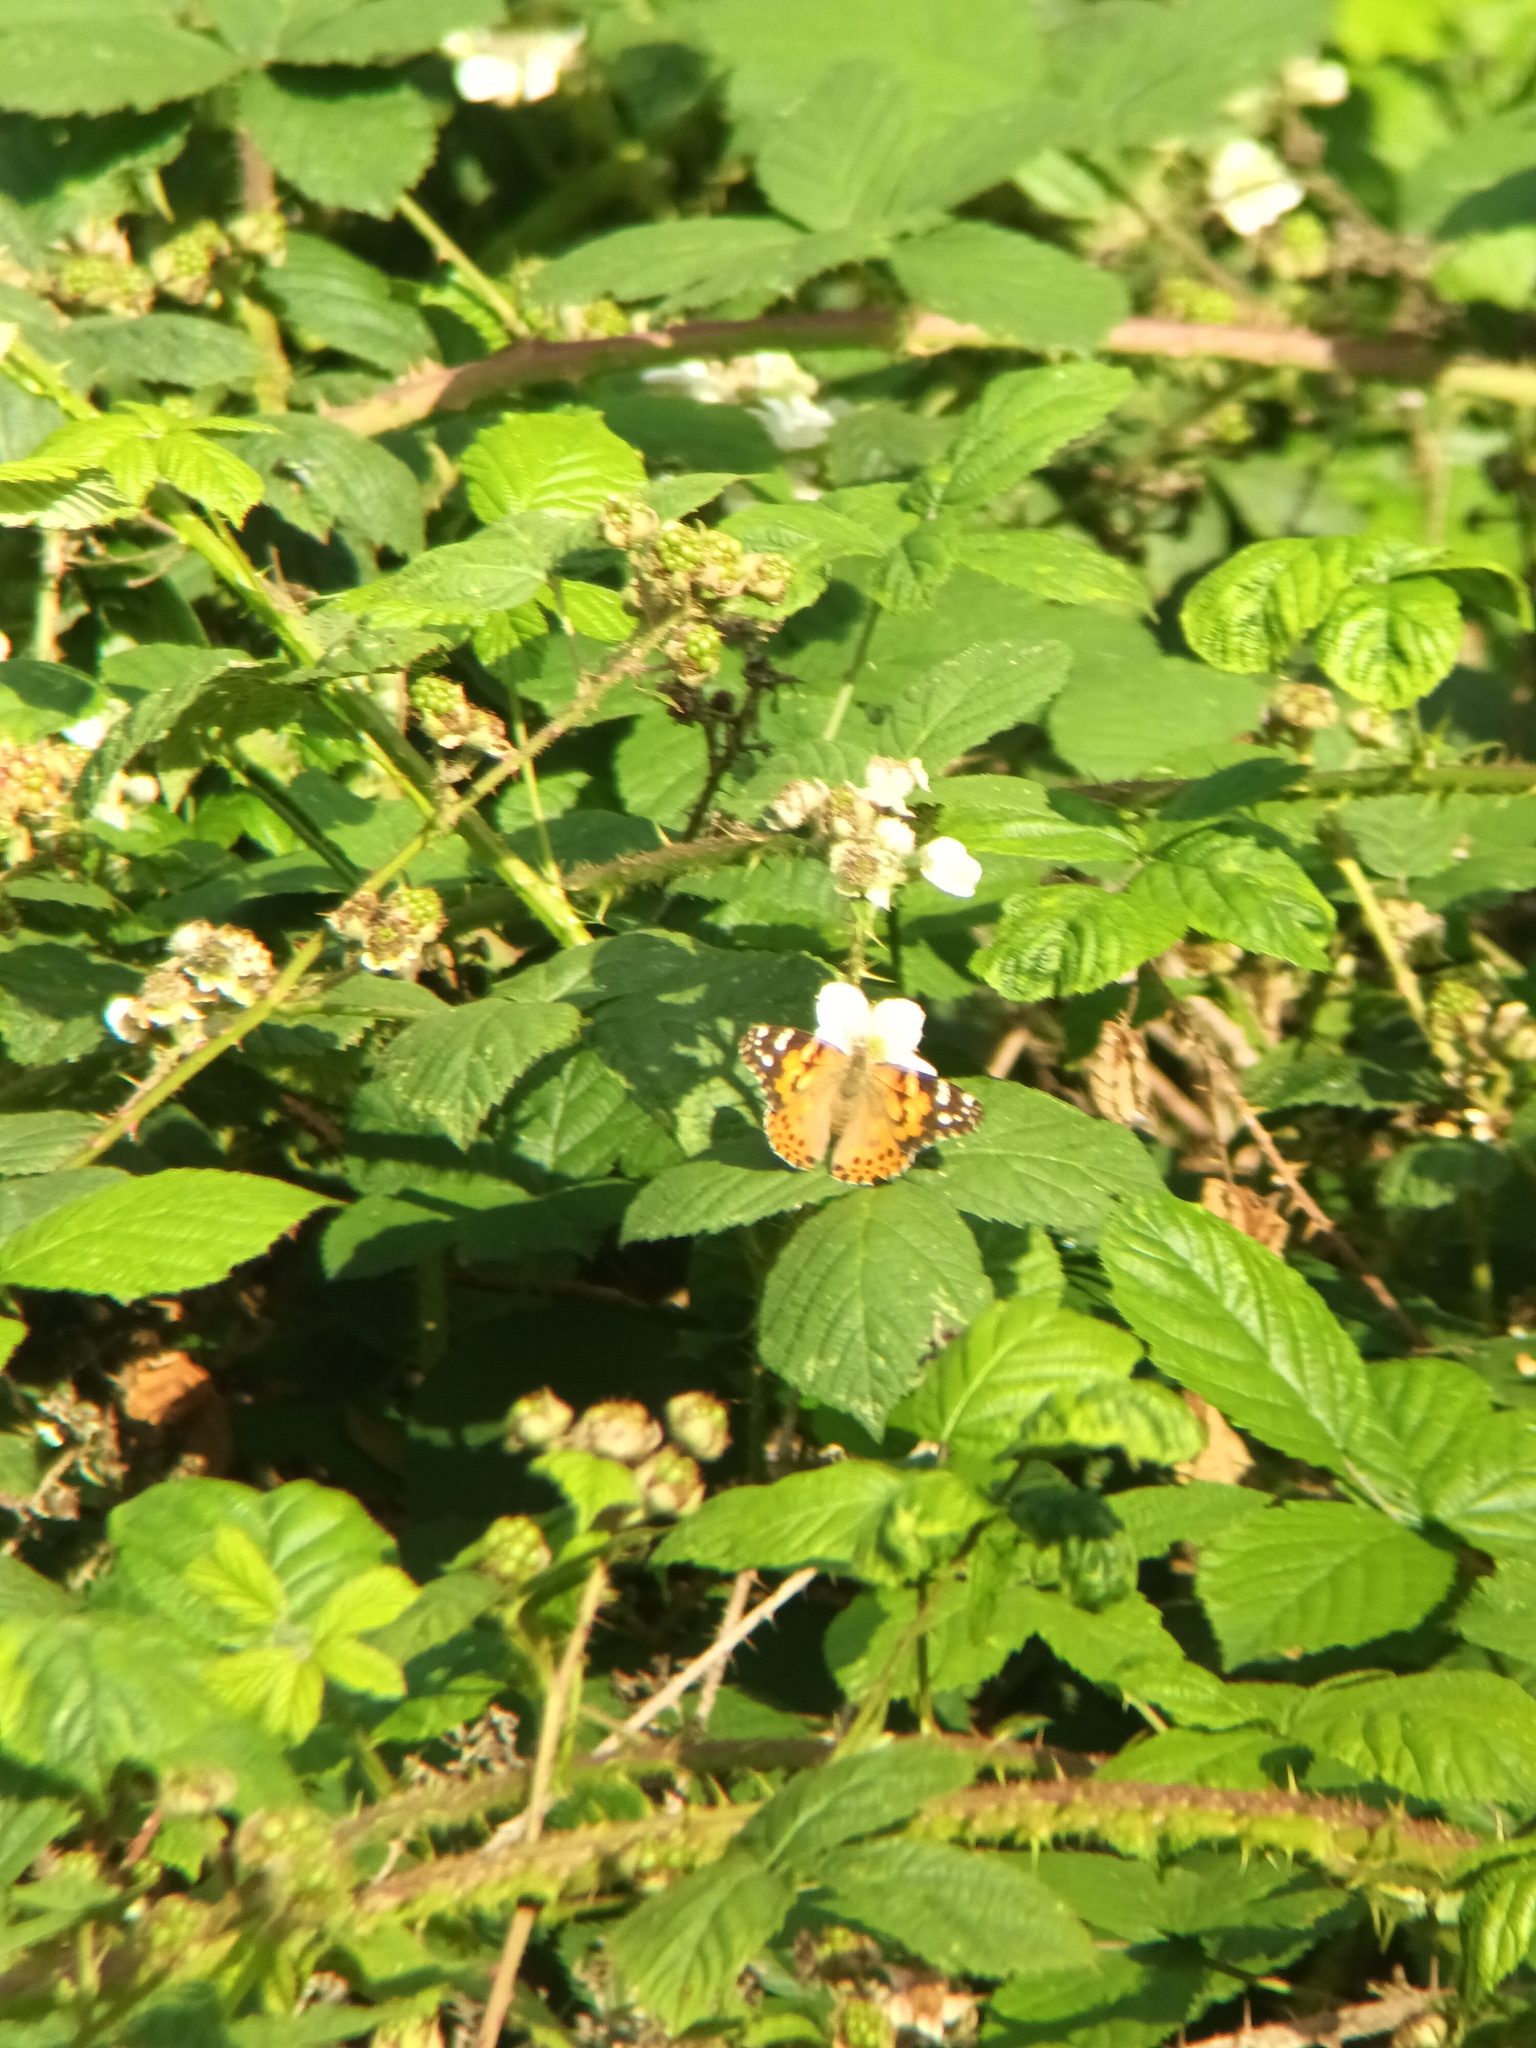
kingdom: Animalia
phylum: Arthropoda
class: Insecta
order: Lepidoptera
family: Nymphalidae
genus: Vanessa
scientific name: Vanessa cardui
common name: Painted lady
